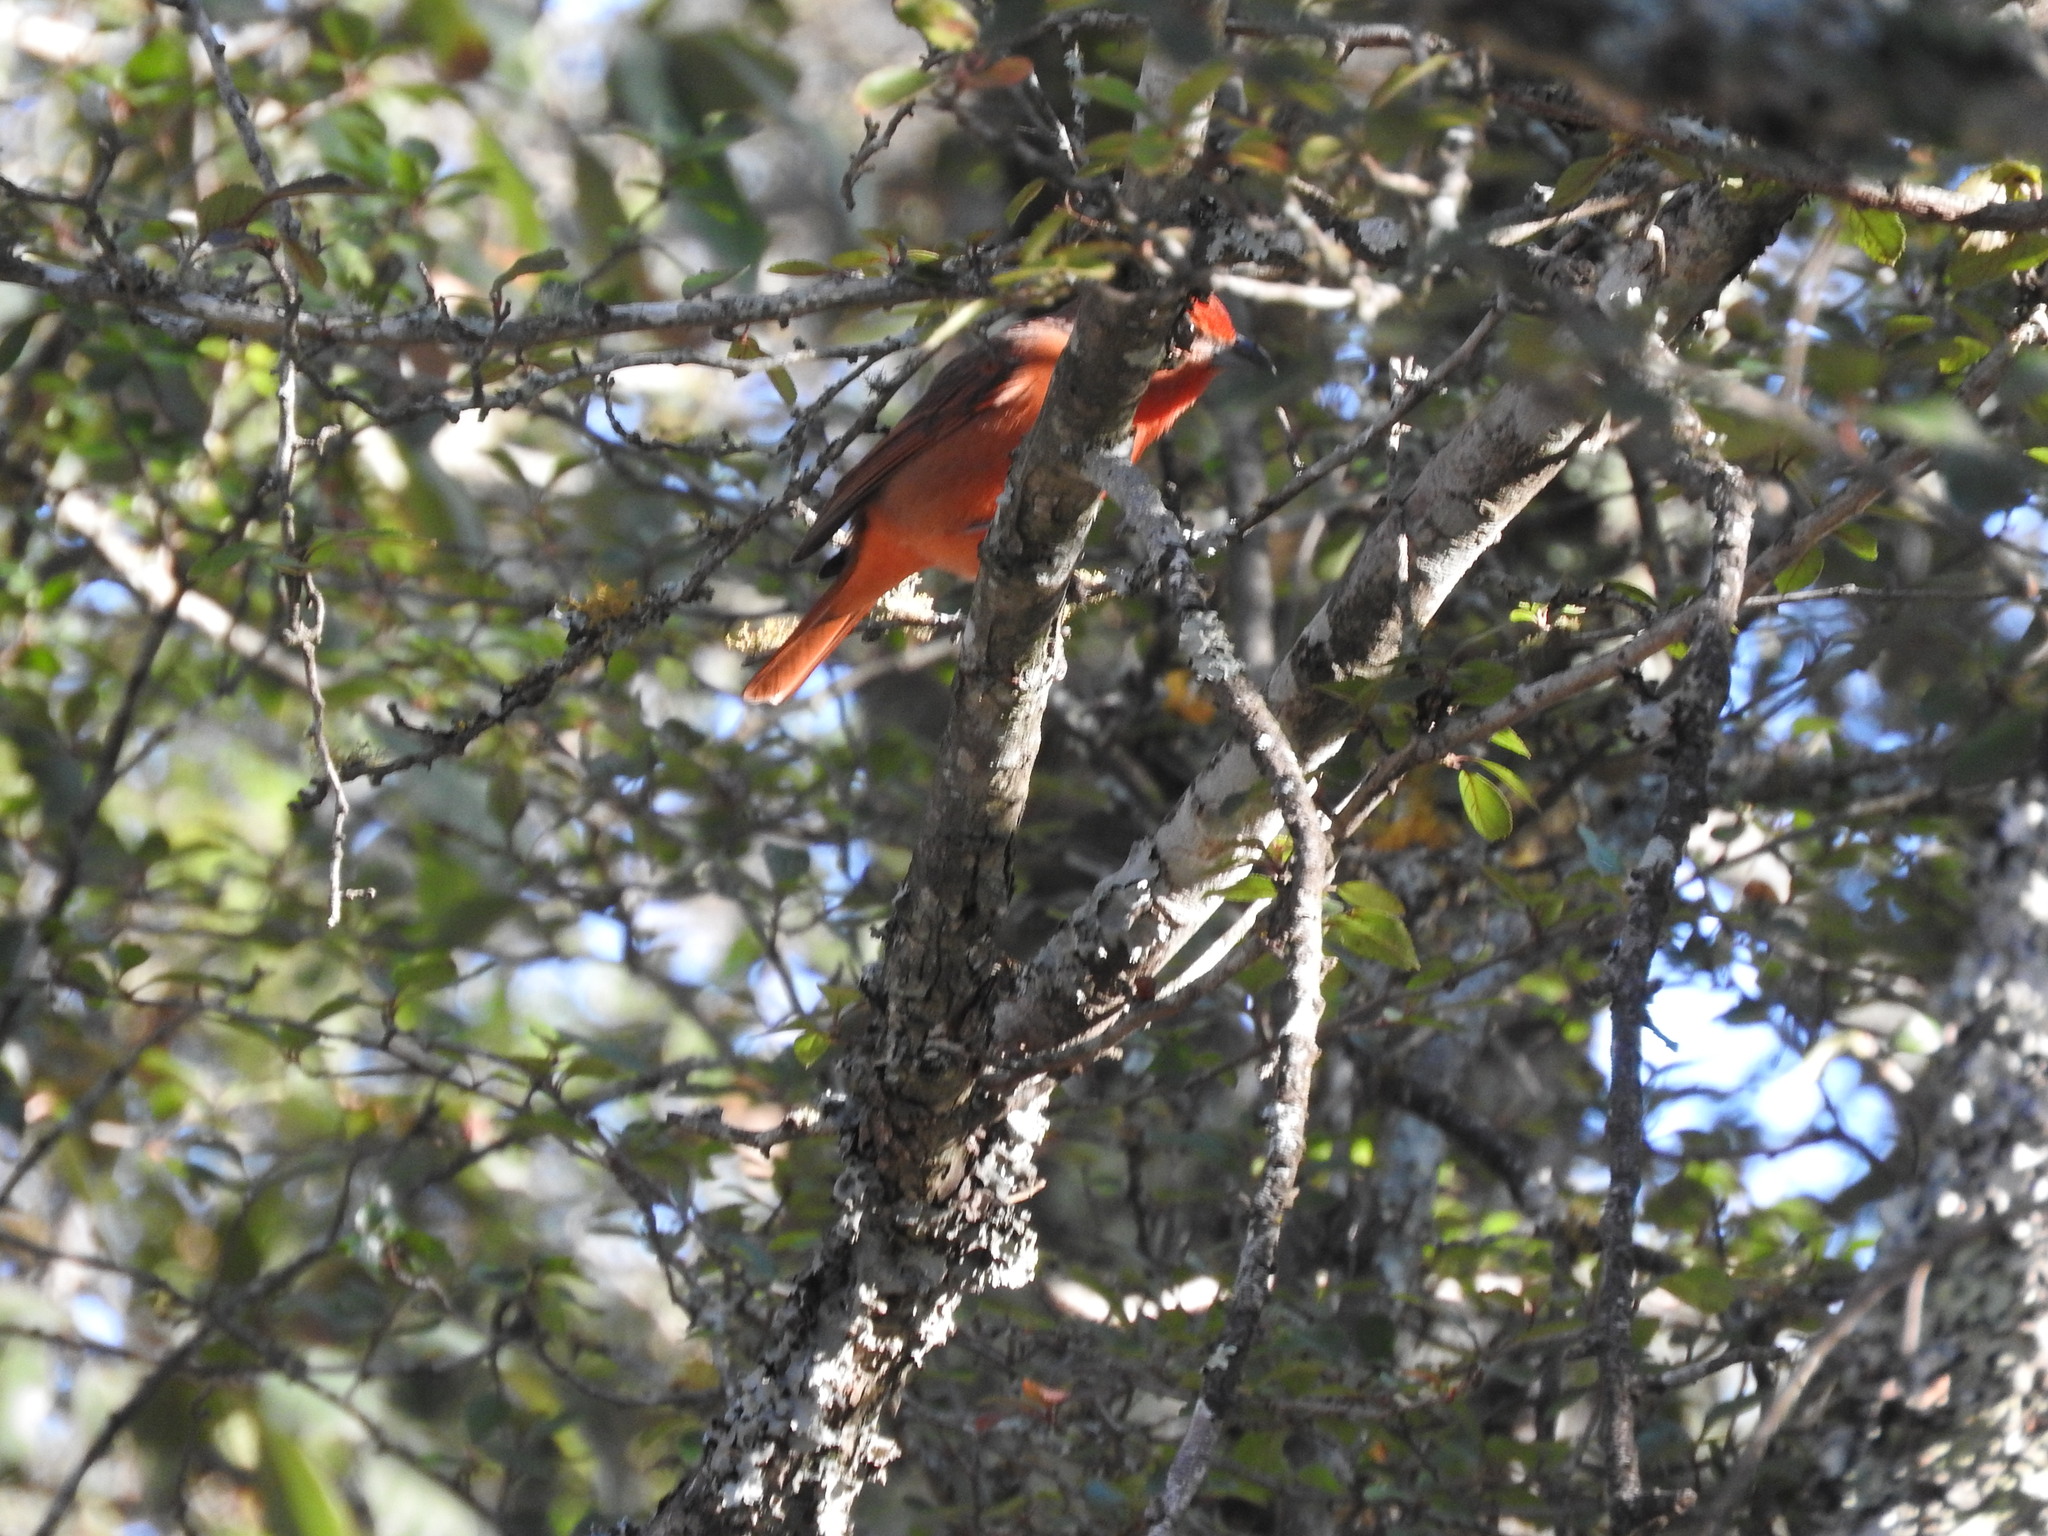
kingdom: Animalia
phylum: Chordata
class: Aves
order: Passeriformes
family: Cardinalidae
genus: Piranga
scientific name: Piranga flava
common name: Red tanager
